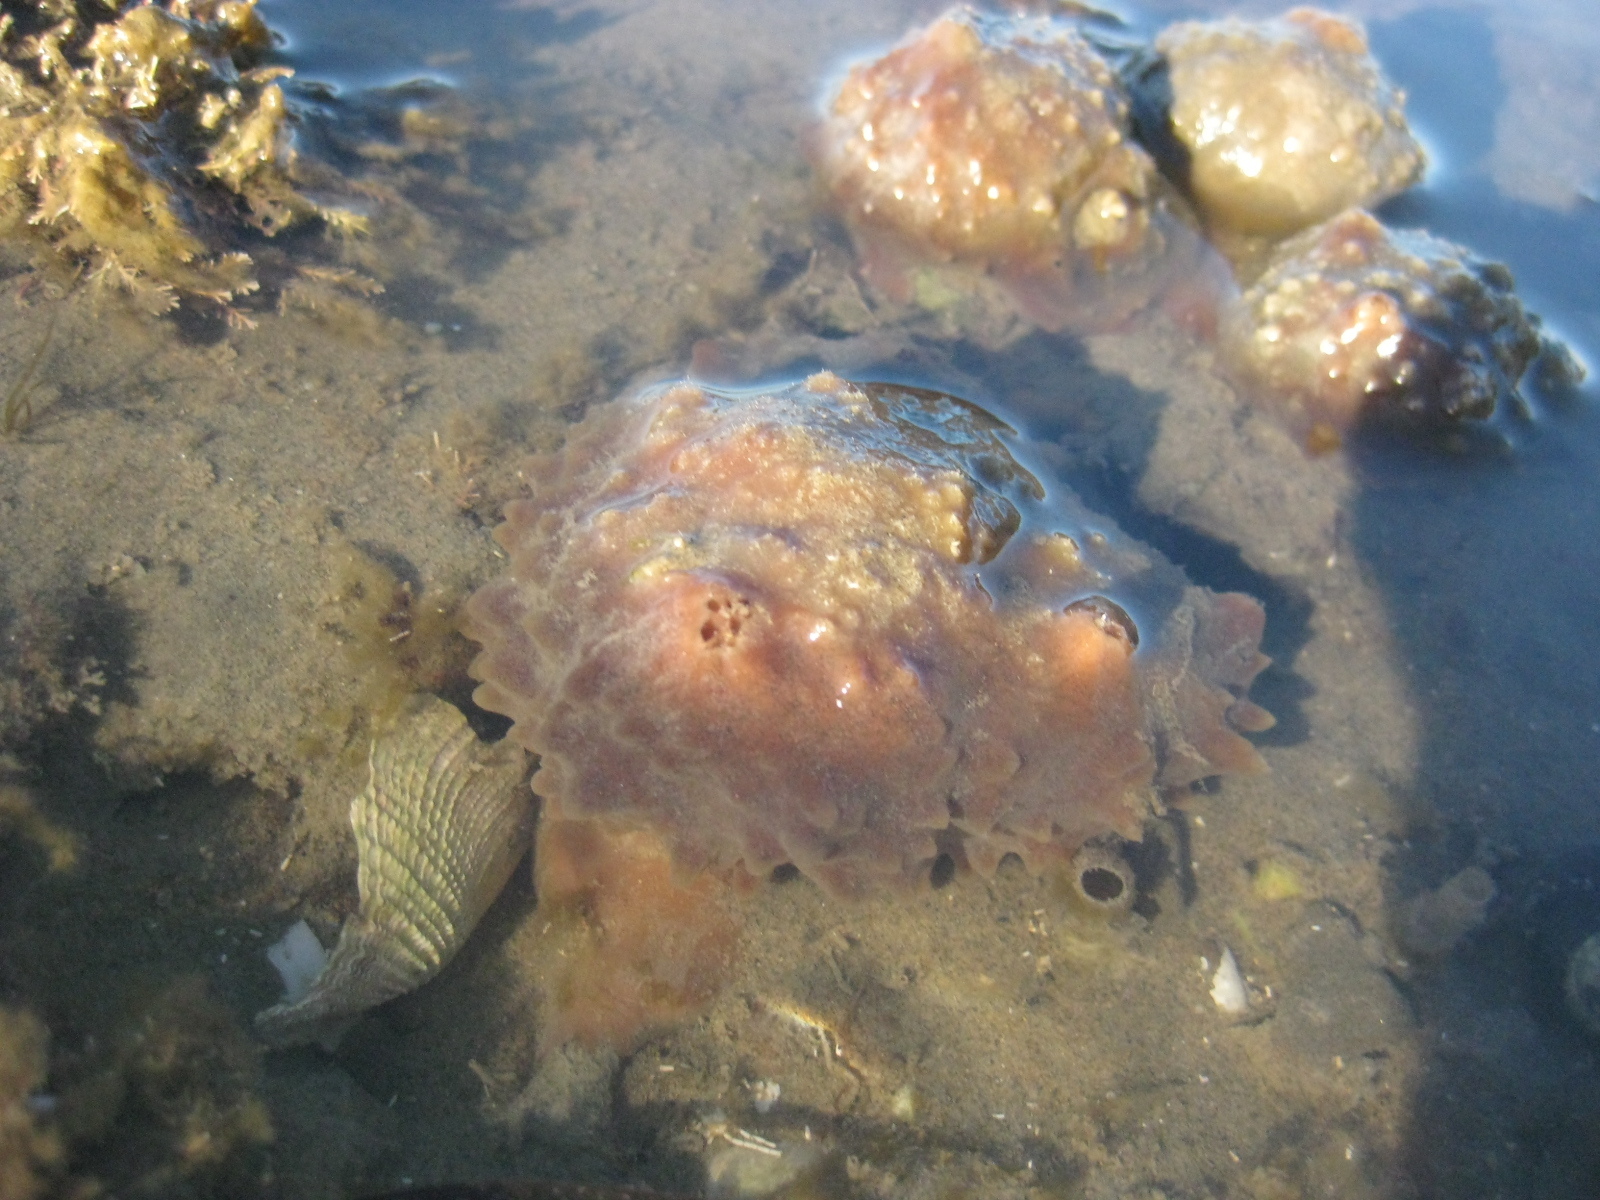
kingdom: Animalia
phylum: Porifera
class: Demospongiae
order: Suberitida
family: Suberitidae
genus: Aaptos
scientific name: Aaptos tenta
